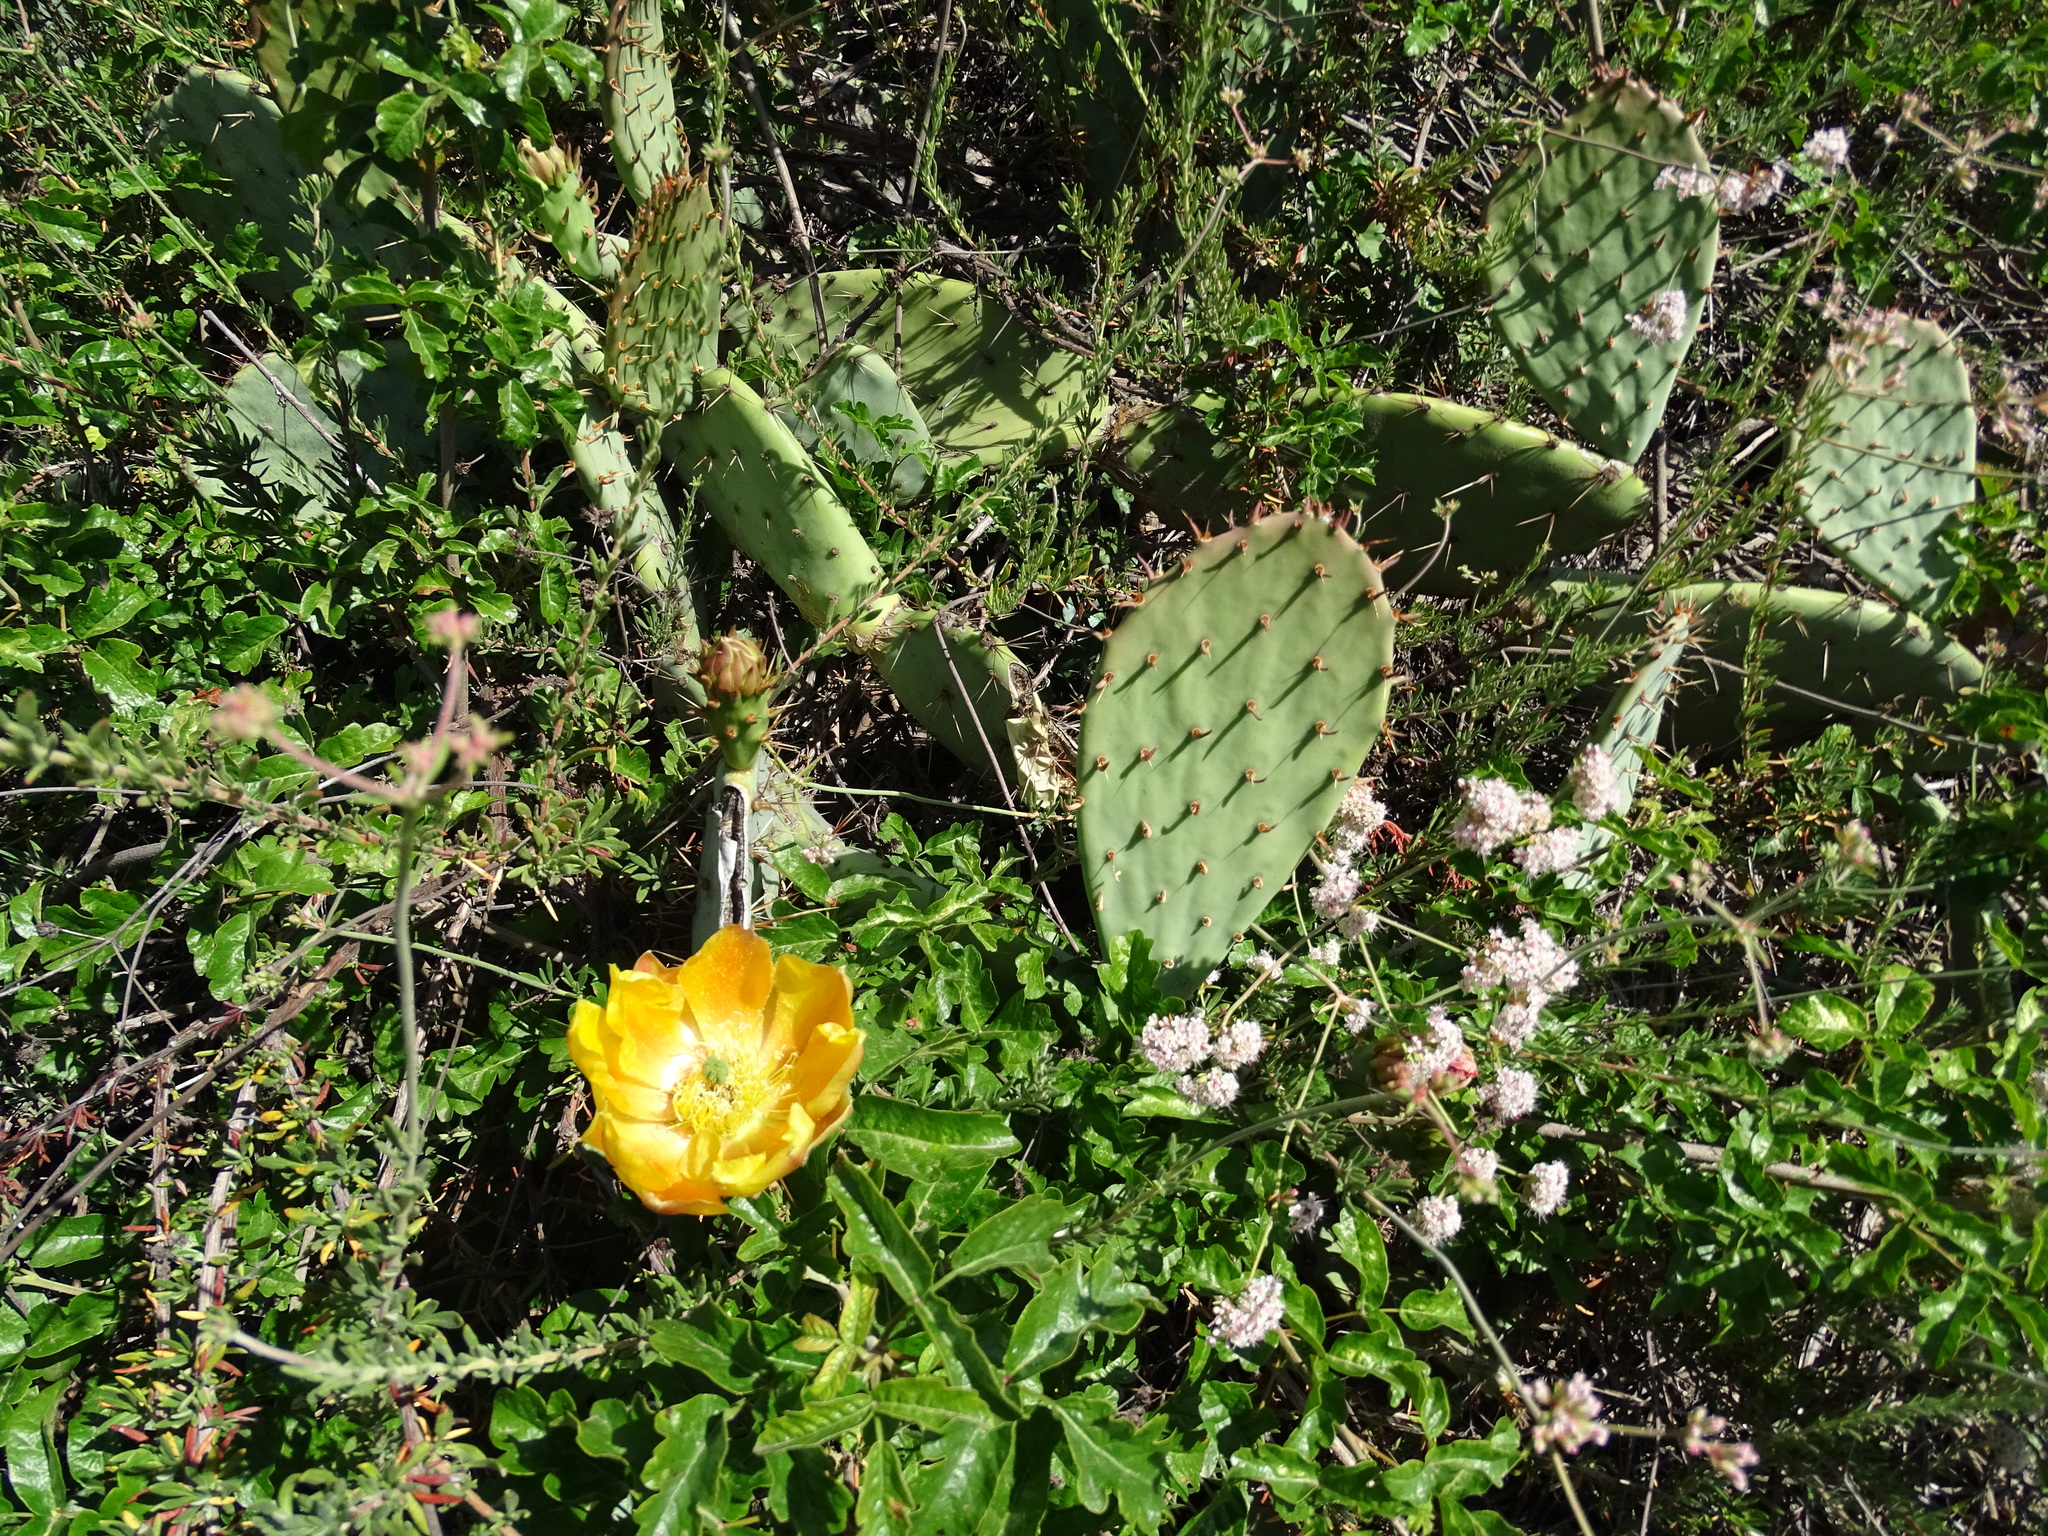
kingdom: Plantae
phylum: Tracheophyta
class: Magnoliopsida
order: Caryophyllales
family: Cactaceae
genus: Opuntia
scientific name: Opuntia littoralis
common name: Coastal prickly-pear
